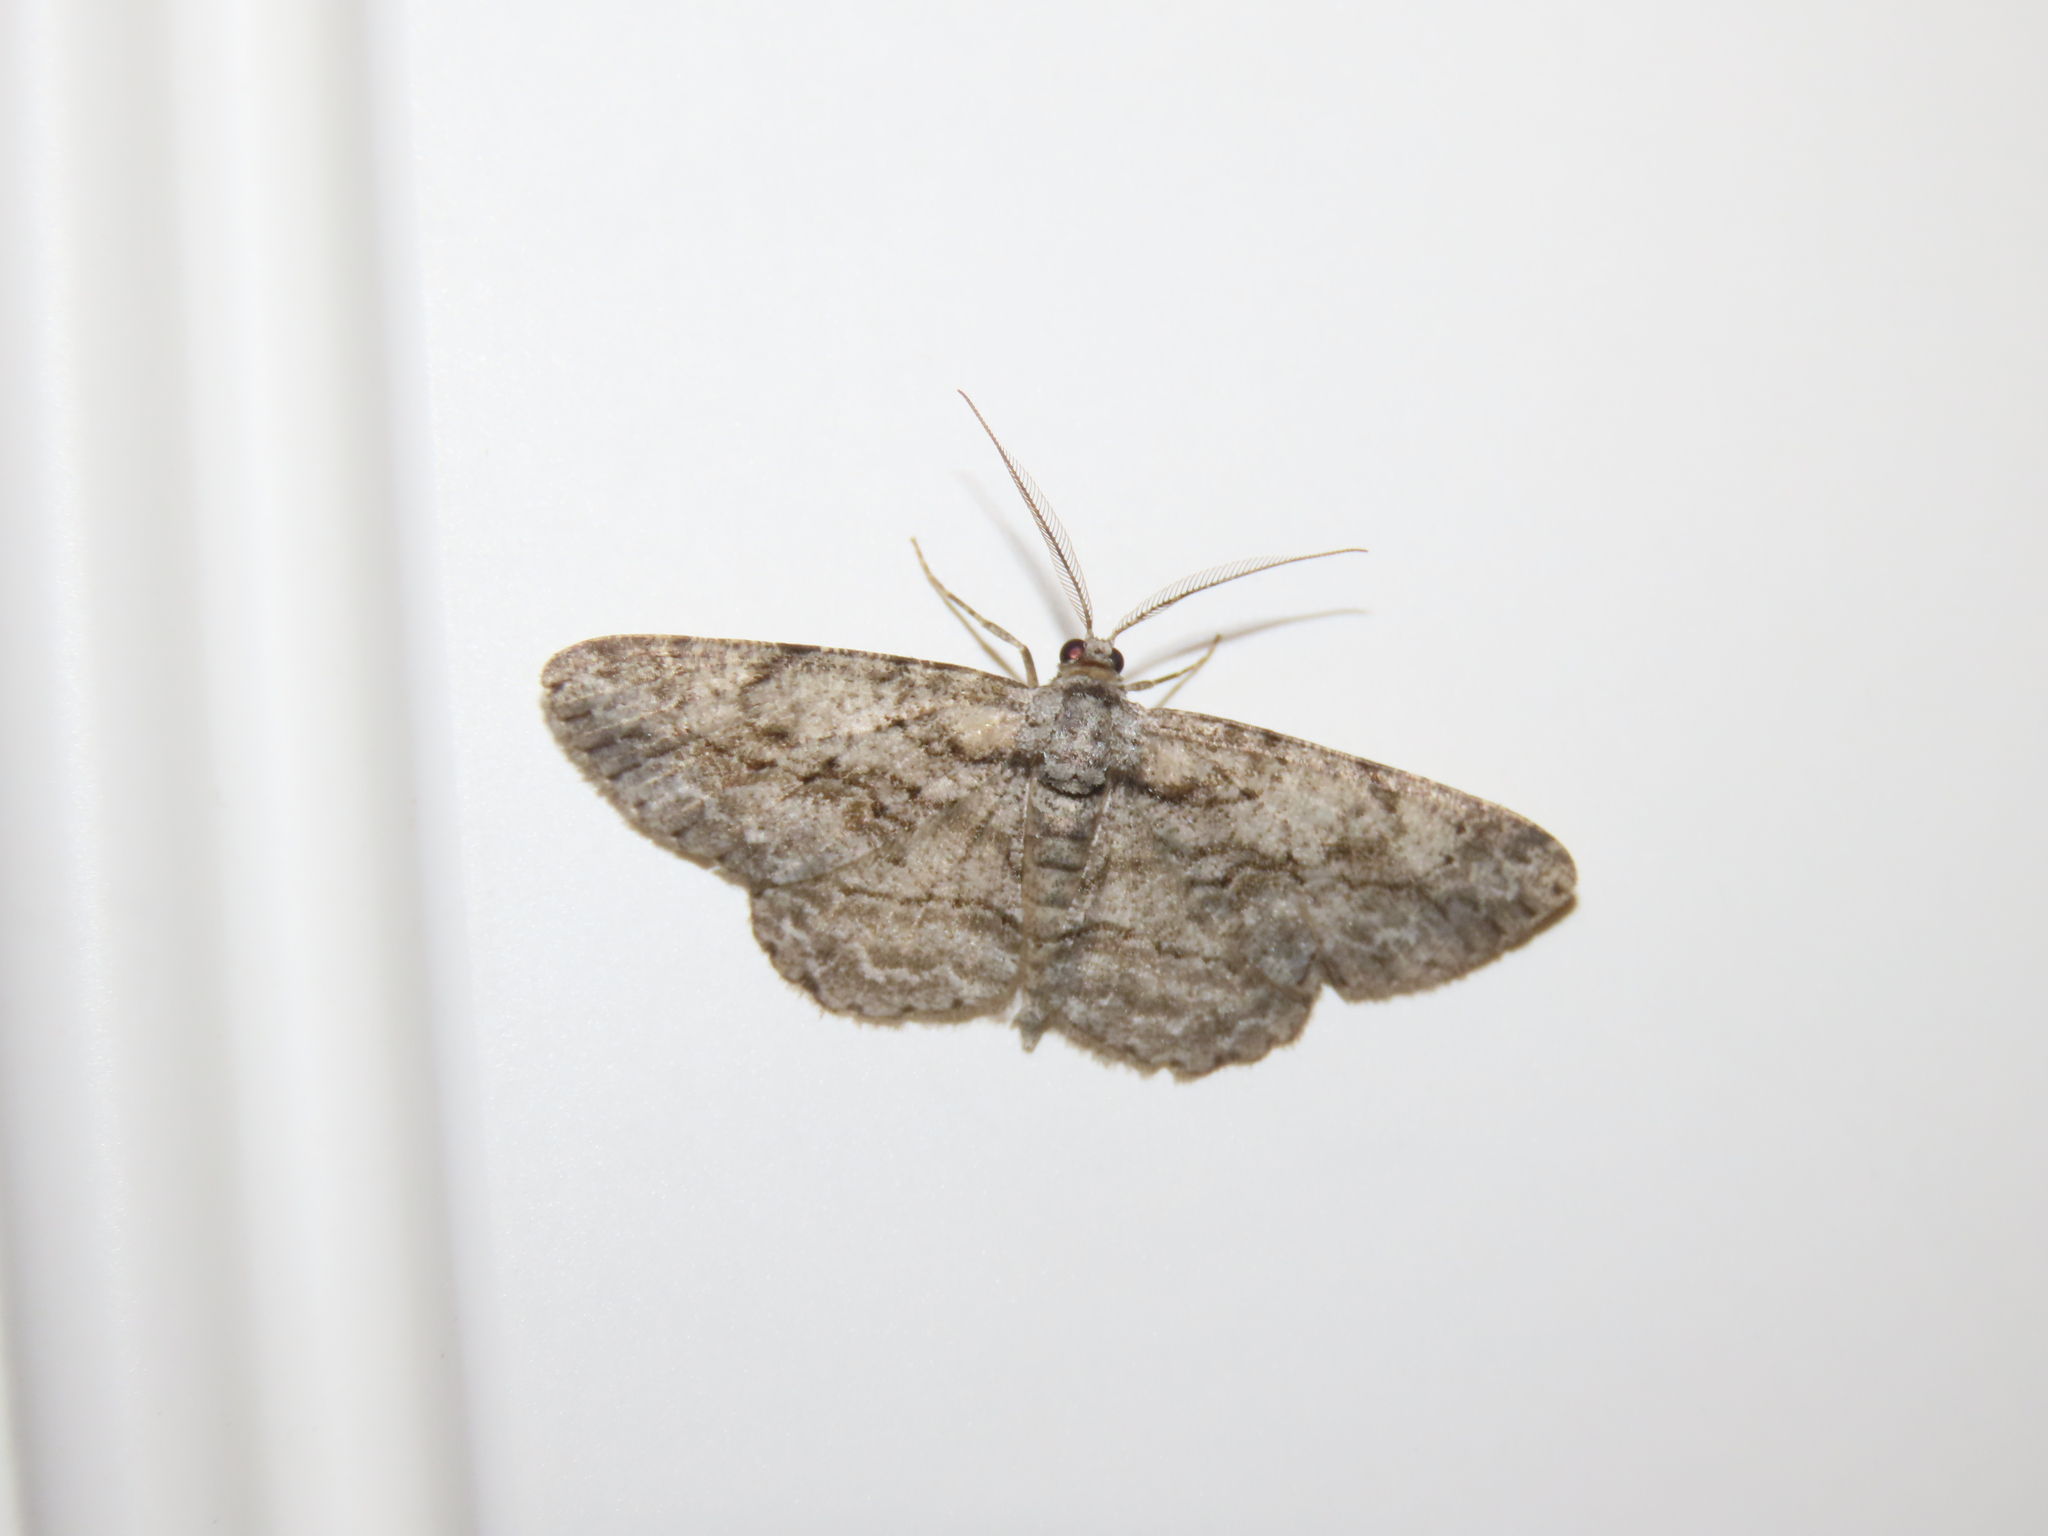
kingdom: Animalia
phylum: Arthropoda
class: Insecta
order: Lepidoptera
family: Geometridae
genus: Anavitrinella
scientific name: Anavitrinella pampinaria
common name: Common gray
